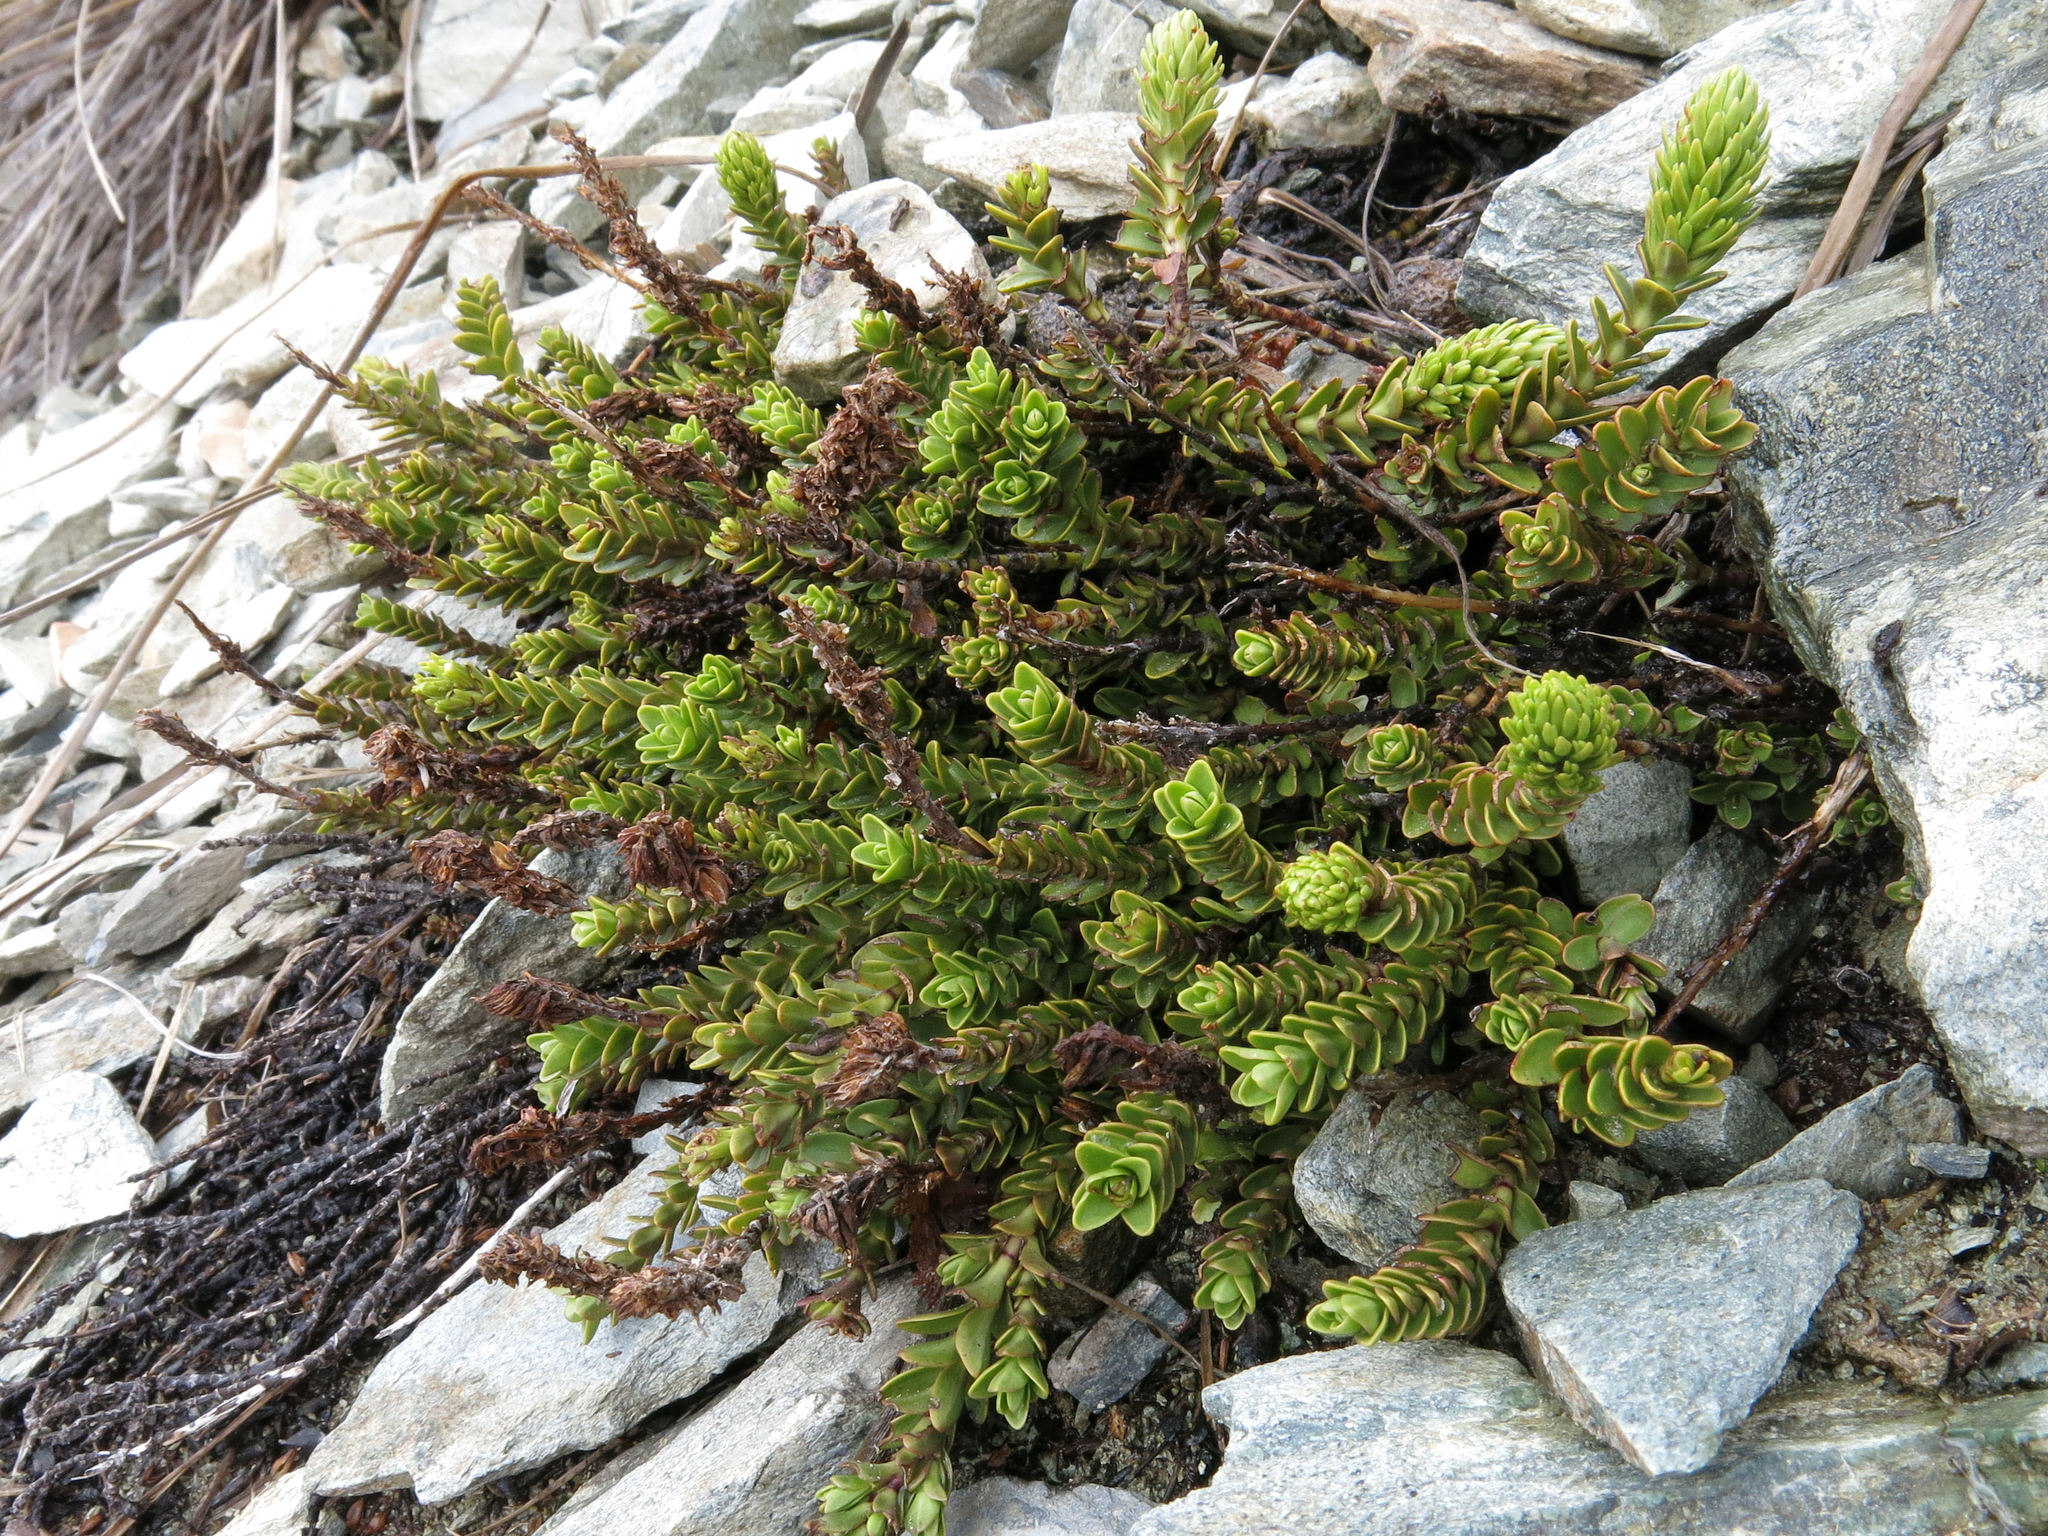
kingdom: Plantae
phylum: Tracheophyta
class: Magnoliopsida
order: Lamiales
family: Plantaginaceae
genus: Veronica
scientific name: Veronica petriei
